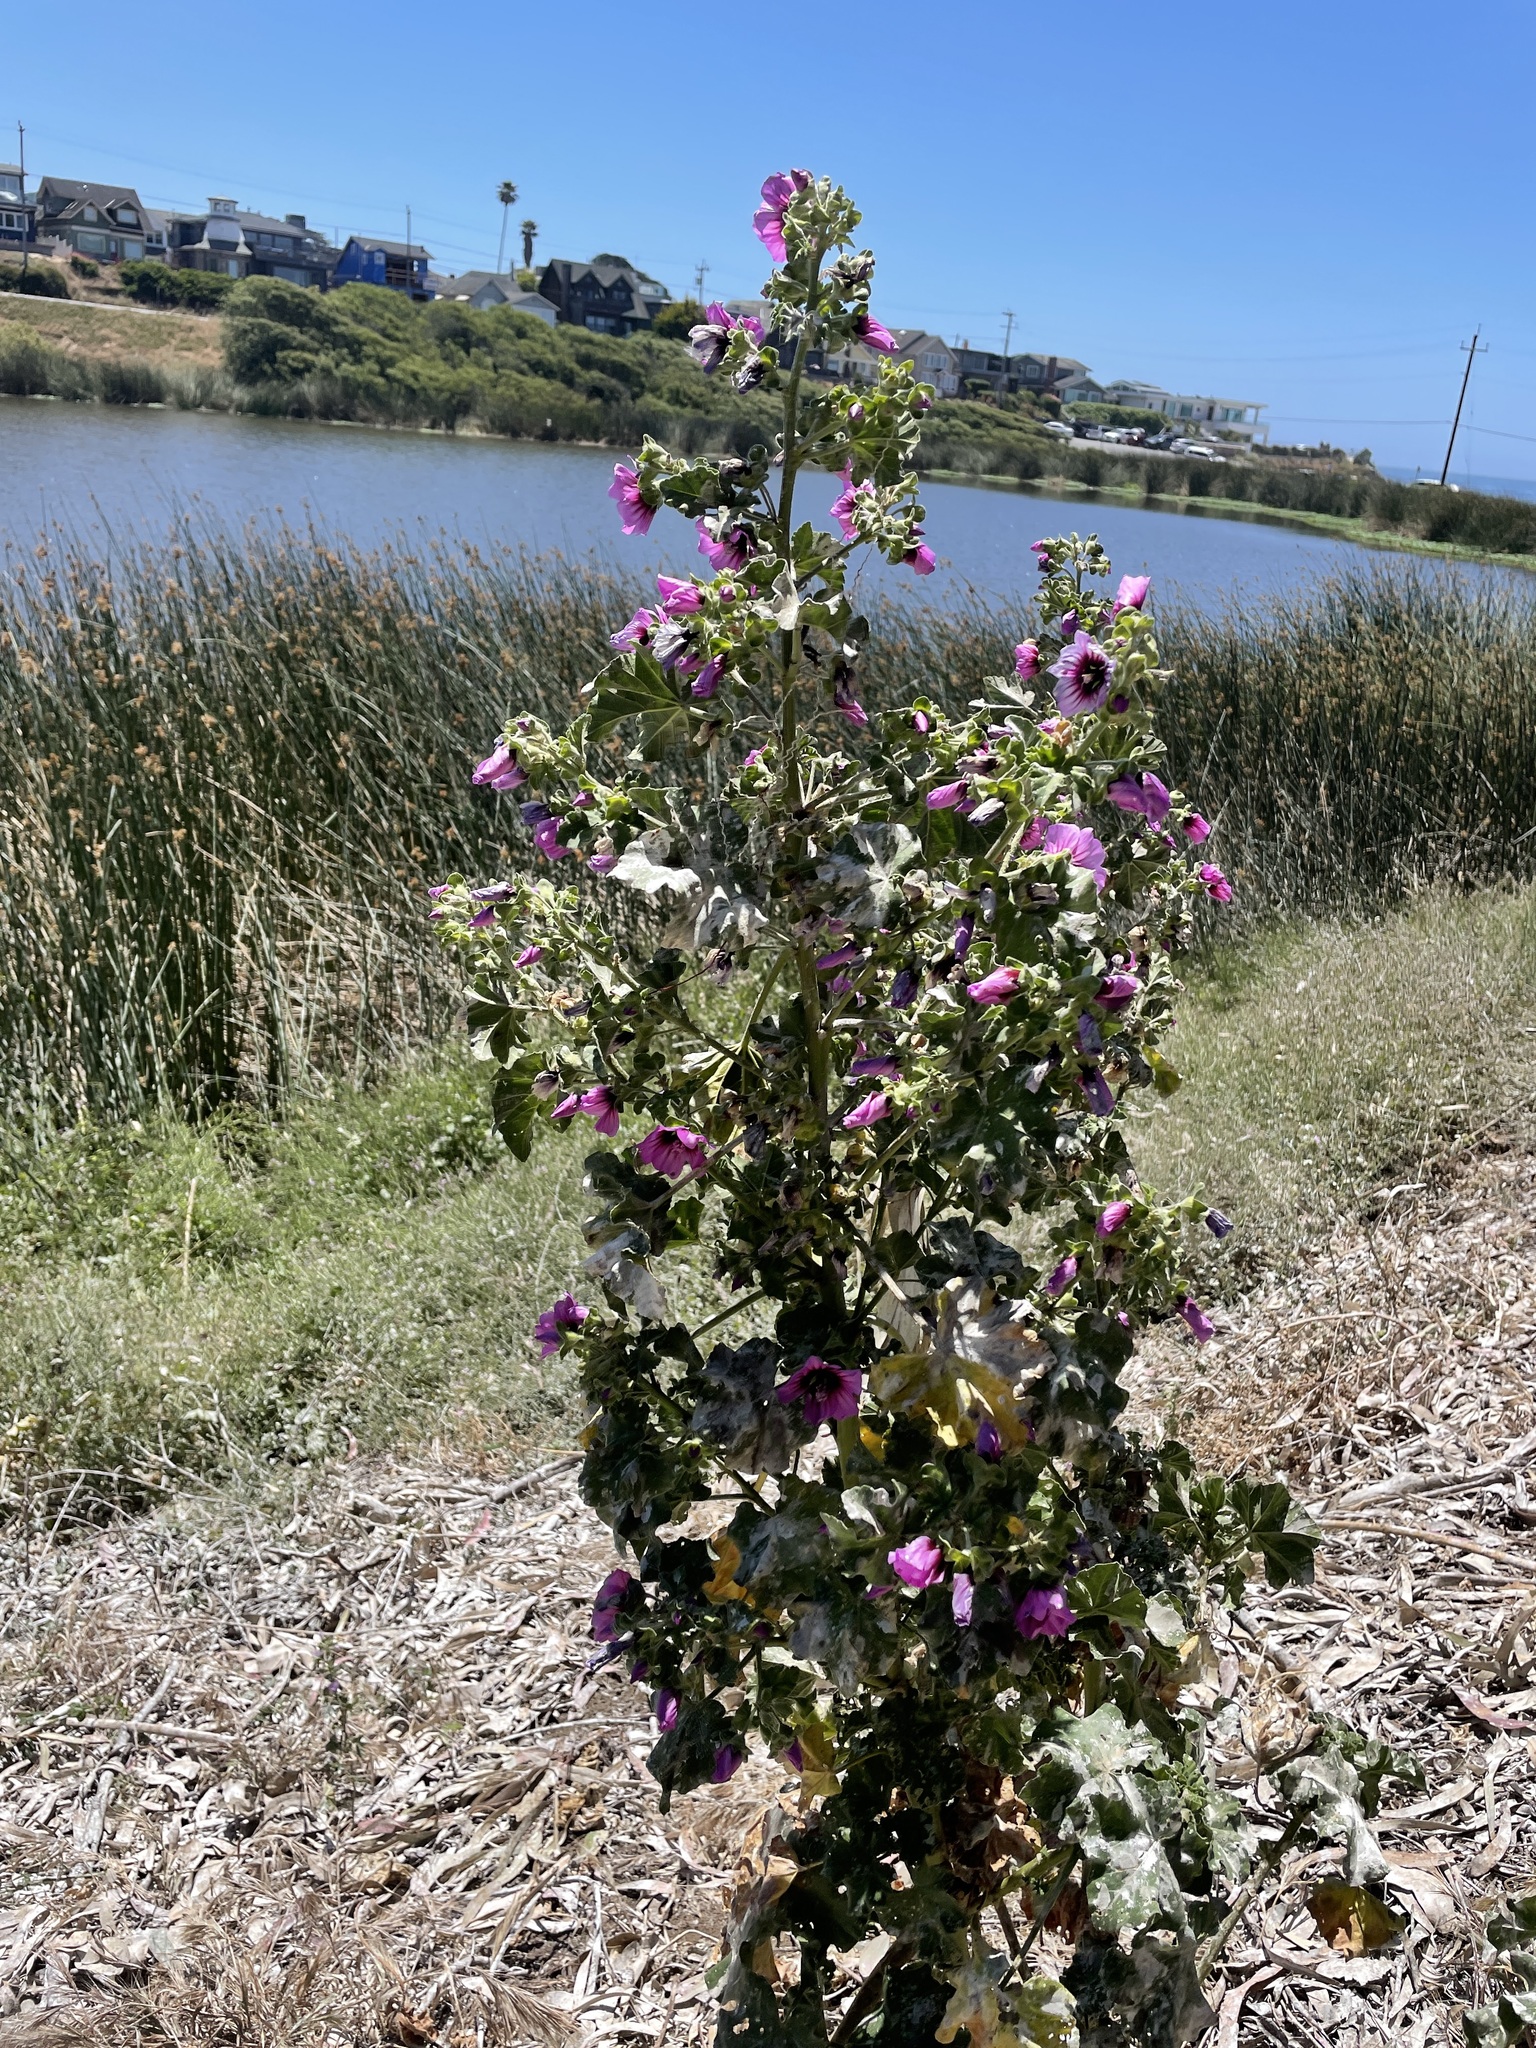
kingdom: Plantae
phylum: Tracheophyta
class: Magnoliopsida
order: Malvales
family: Malvaceae
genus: Malva
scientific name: Malva arborea
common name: Tree mallow
